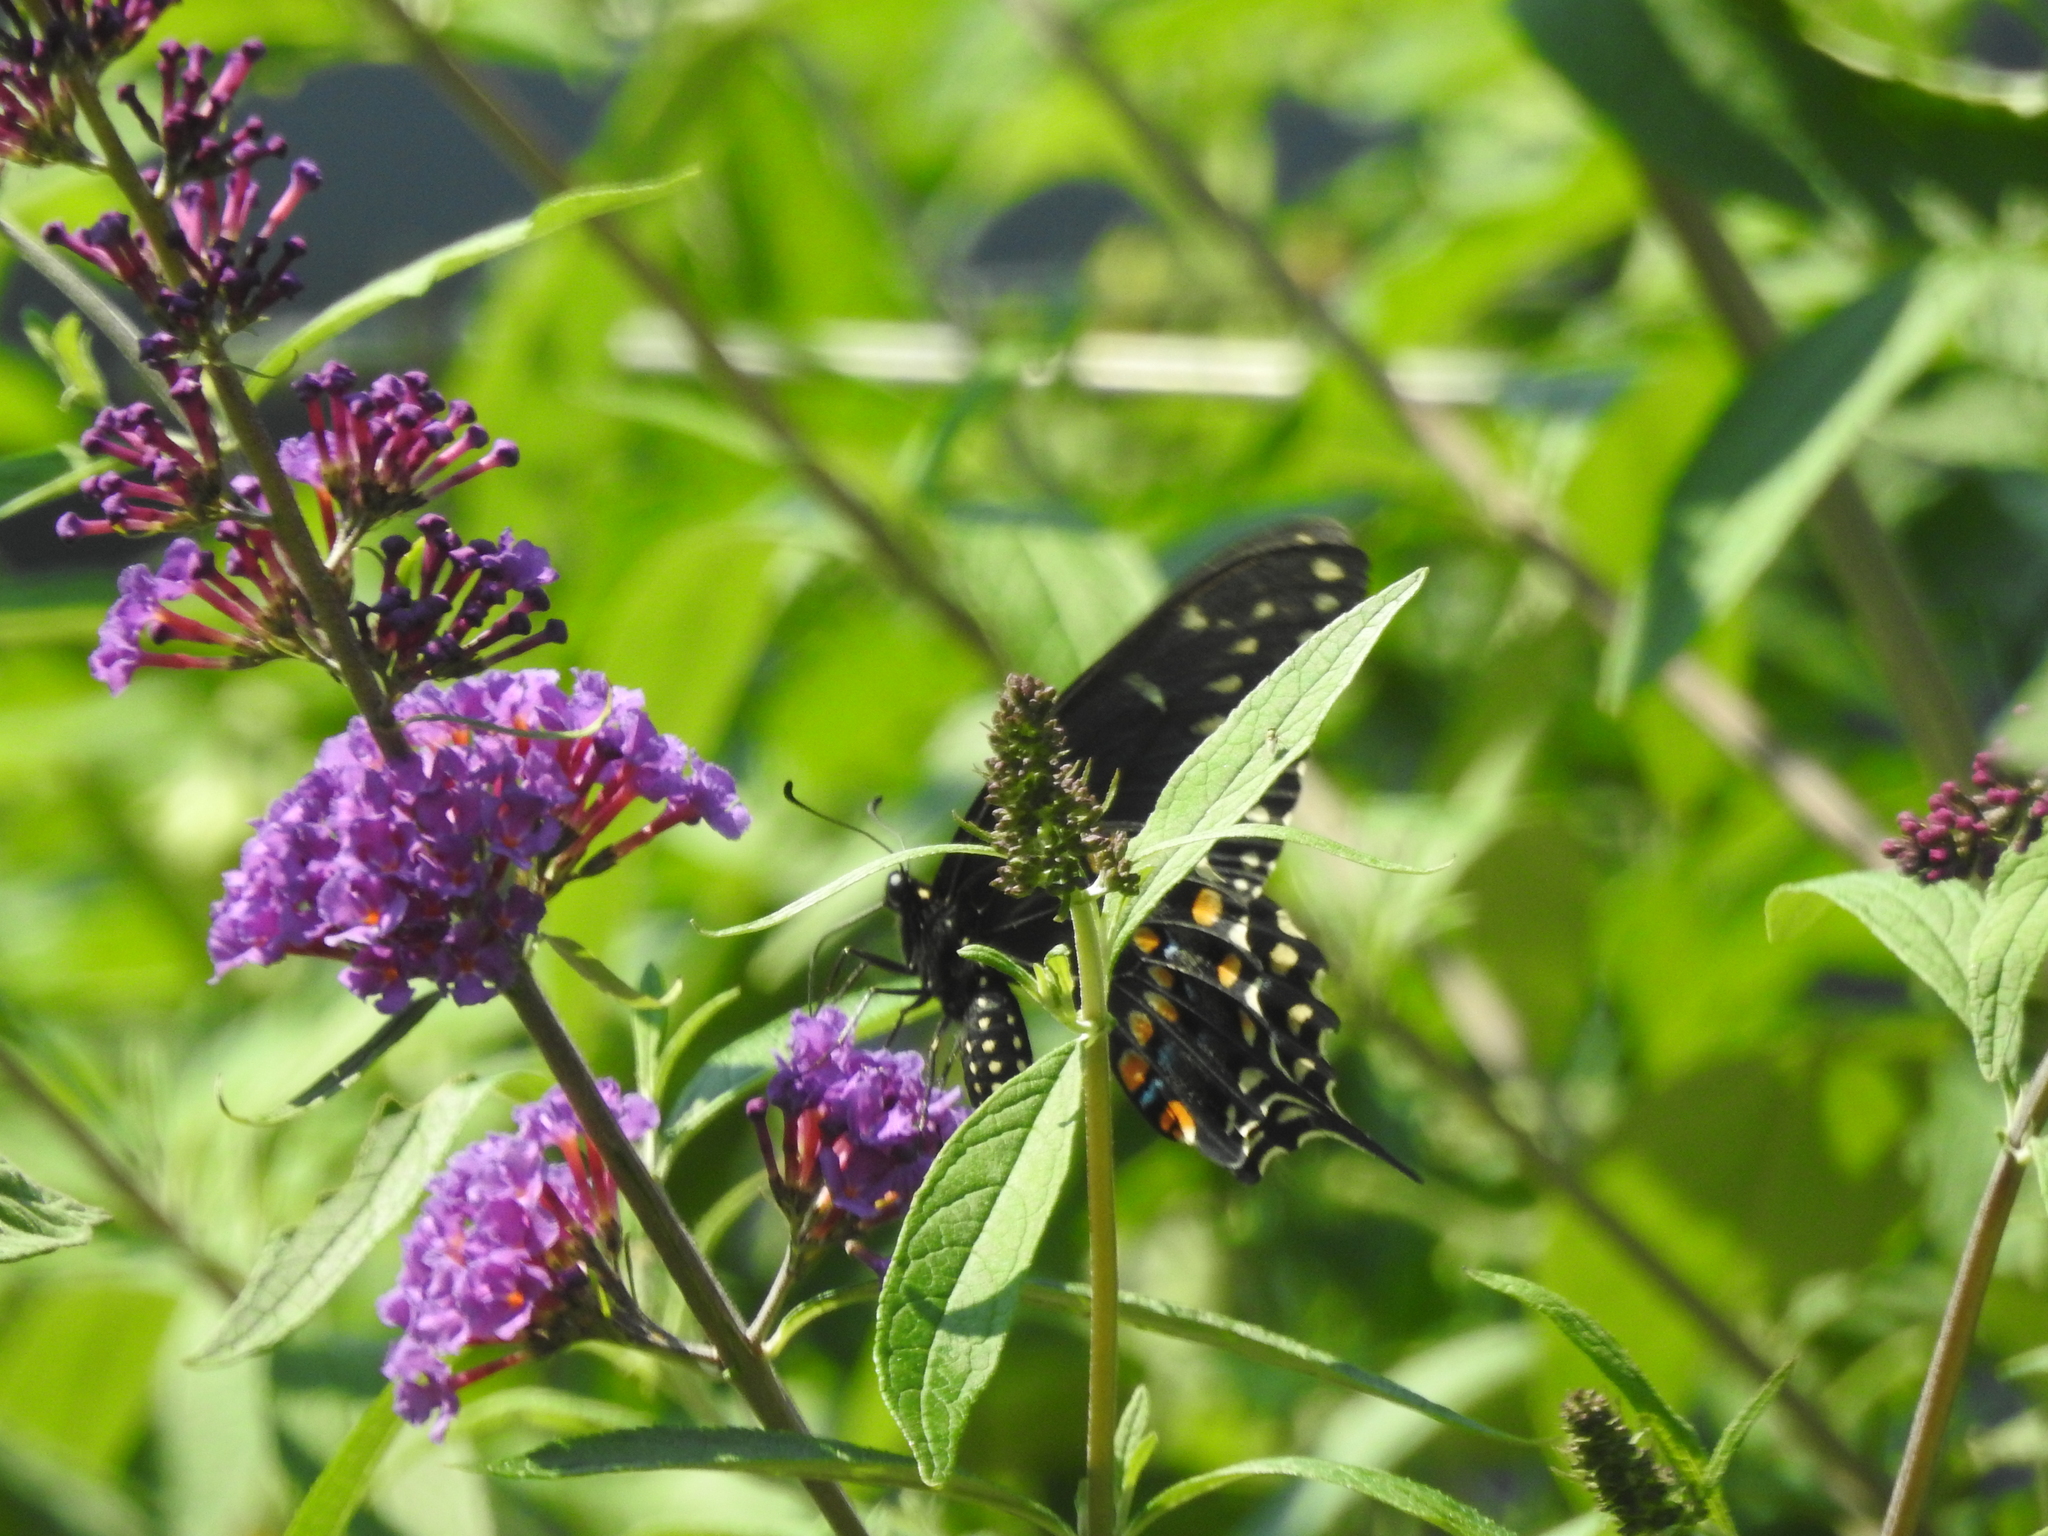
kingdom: Animalia
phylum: Arthropoda
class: Insecta
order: Lepidoptera
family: Papilionidae
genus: Papilio
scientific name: Papilio polyxenes
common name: Black swallowtail
